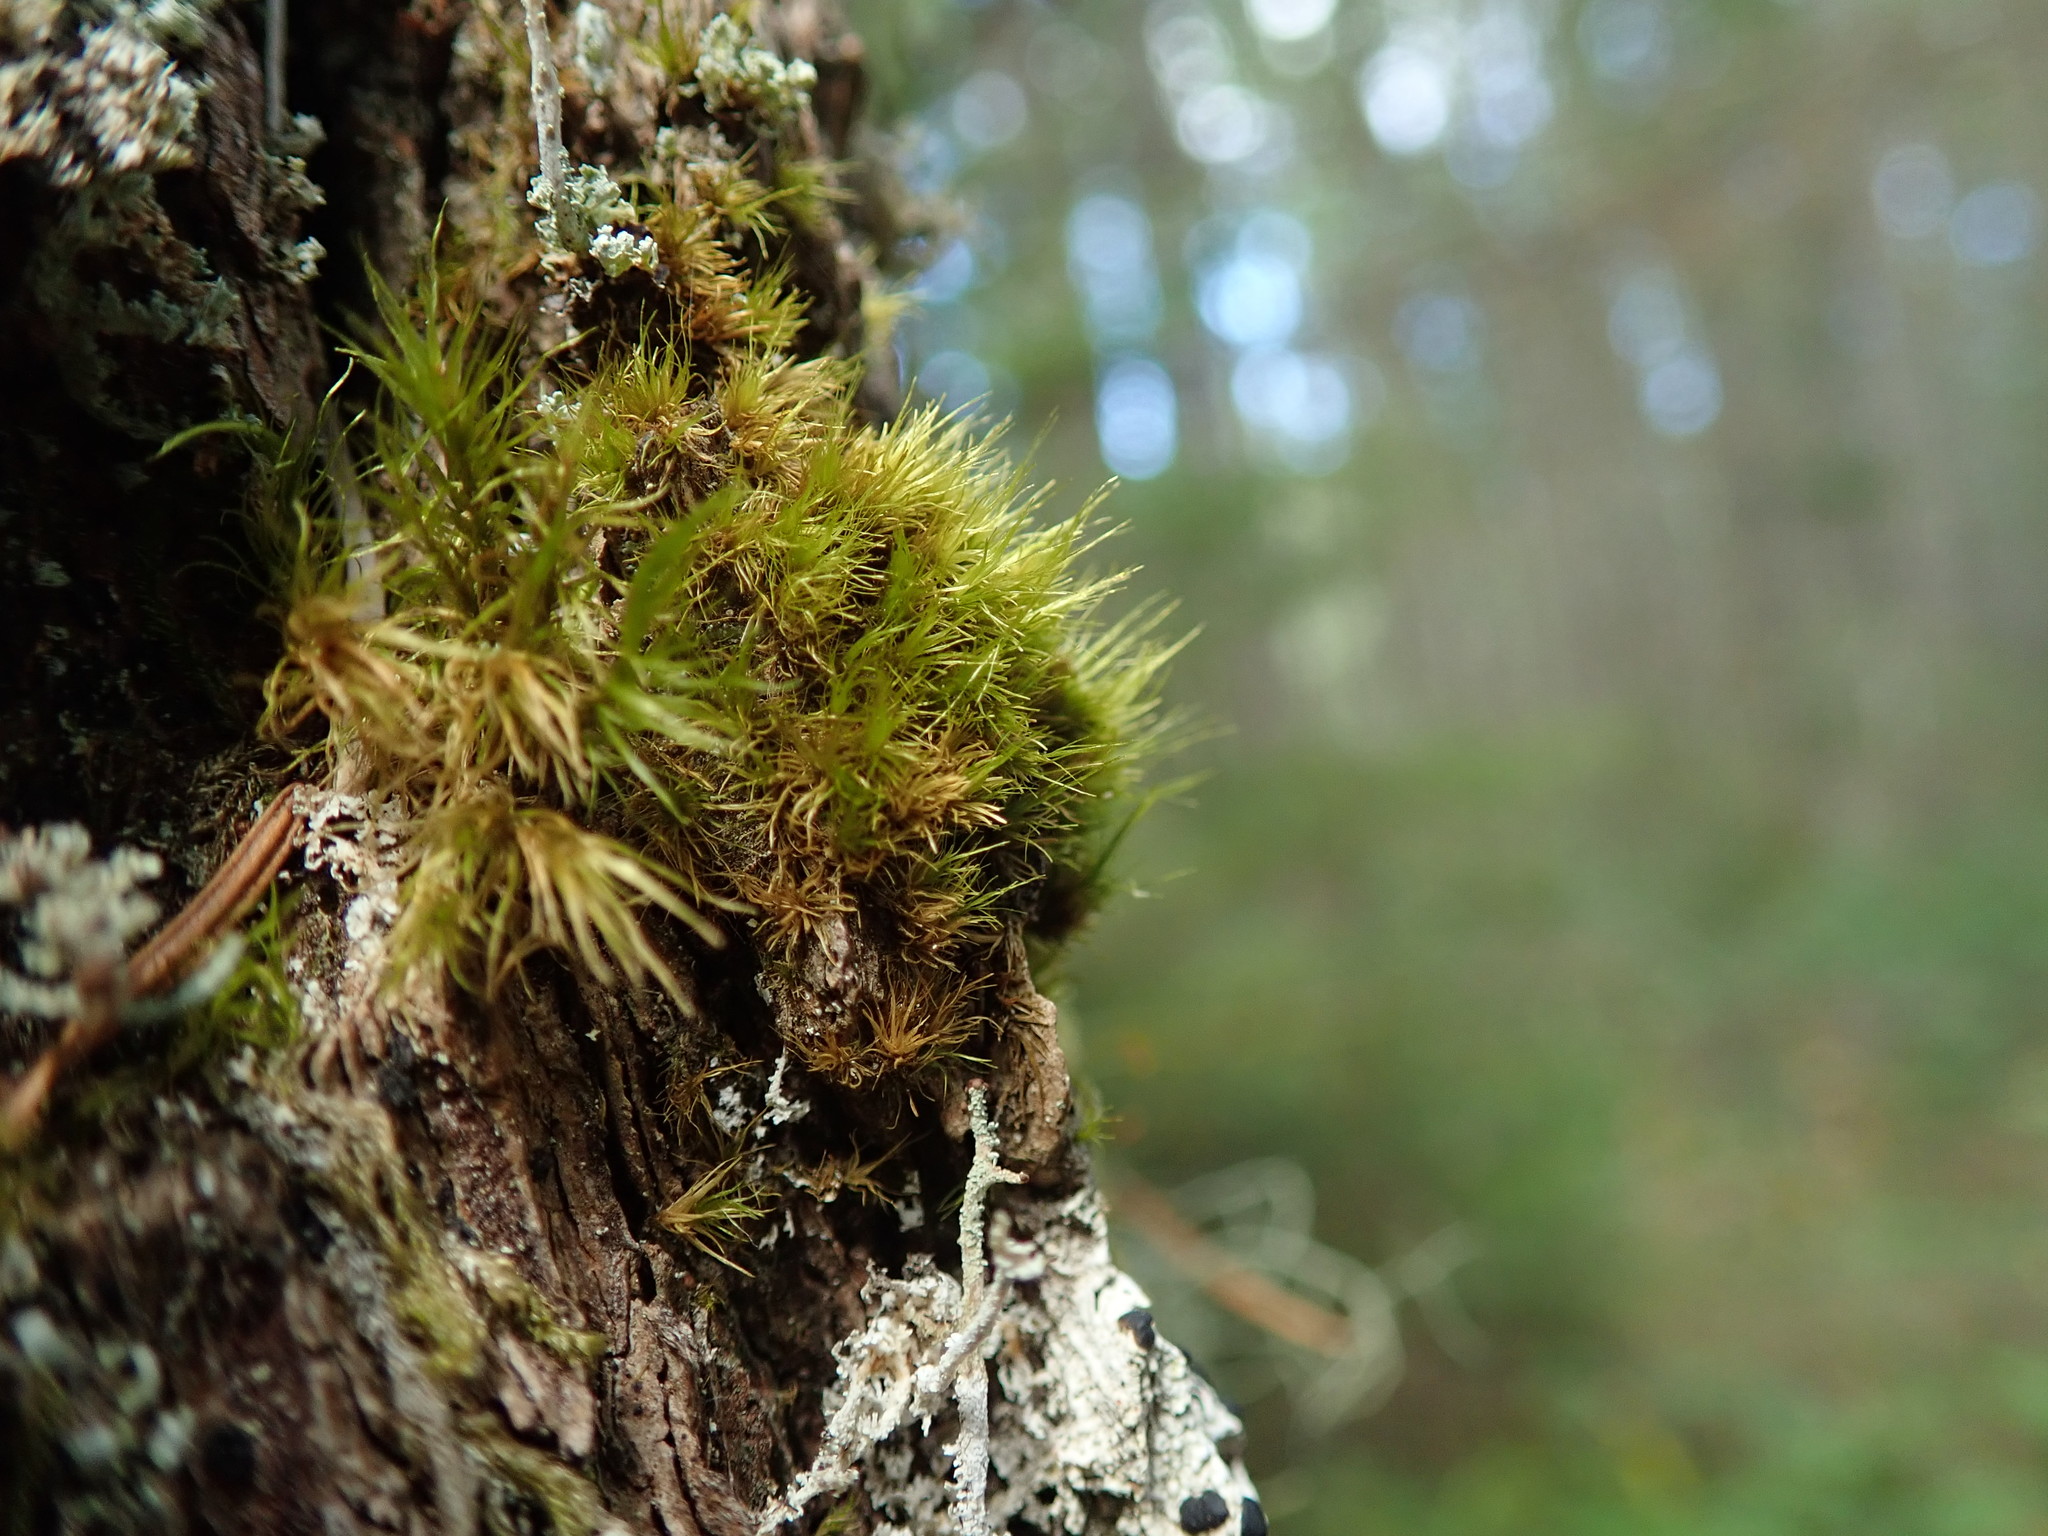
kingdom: Plantae
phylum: Bryophyta
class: Bryopsida
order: Dicranales
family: Dicranaceae
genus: Orthodicranum
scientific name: Orthodicranum tauricum
